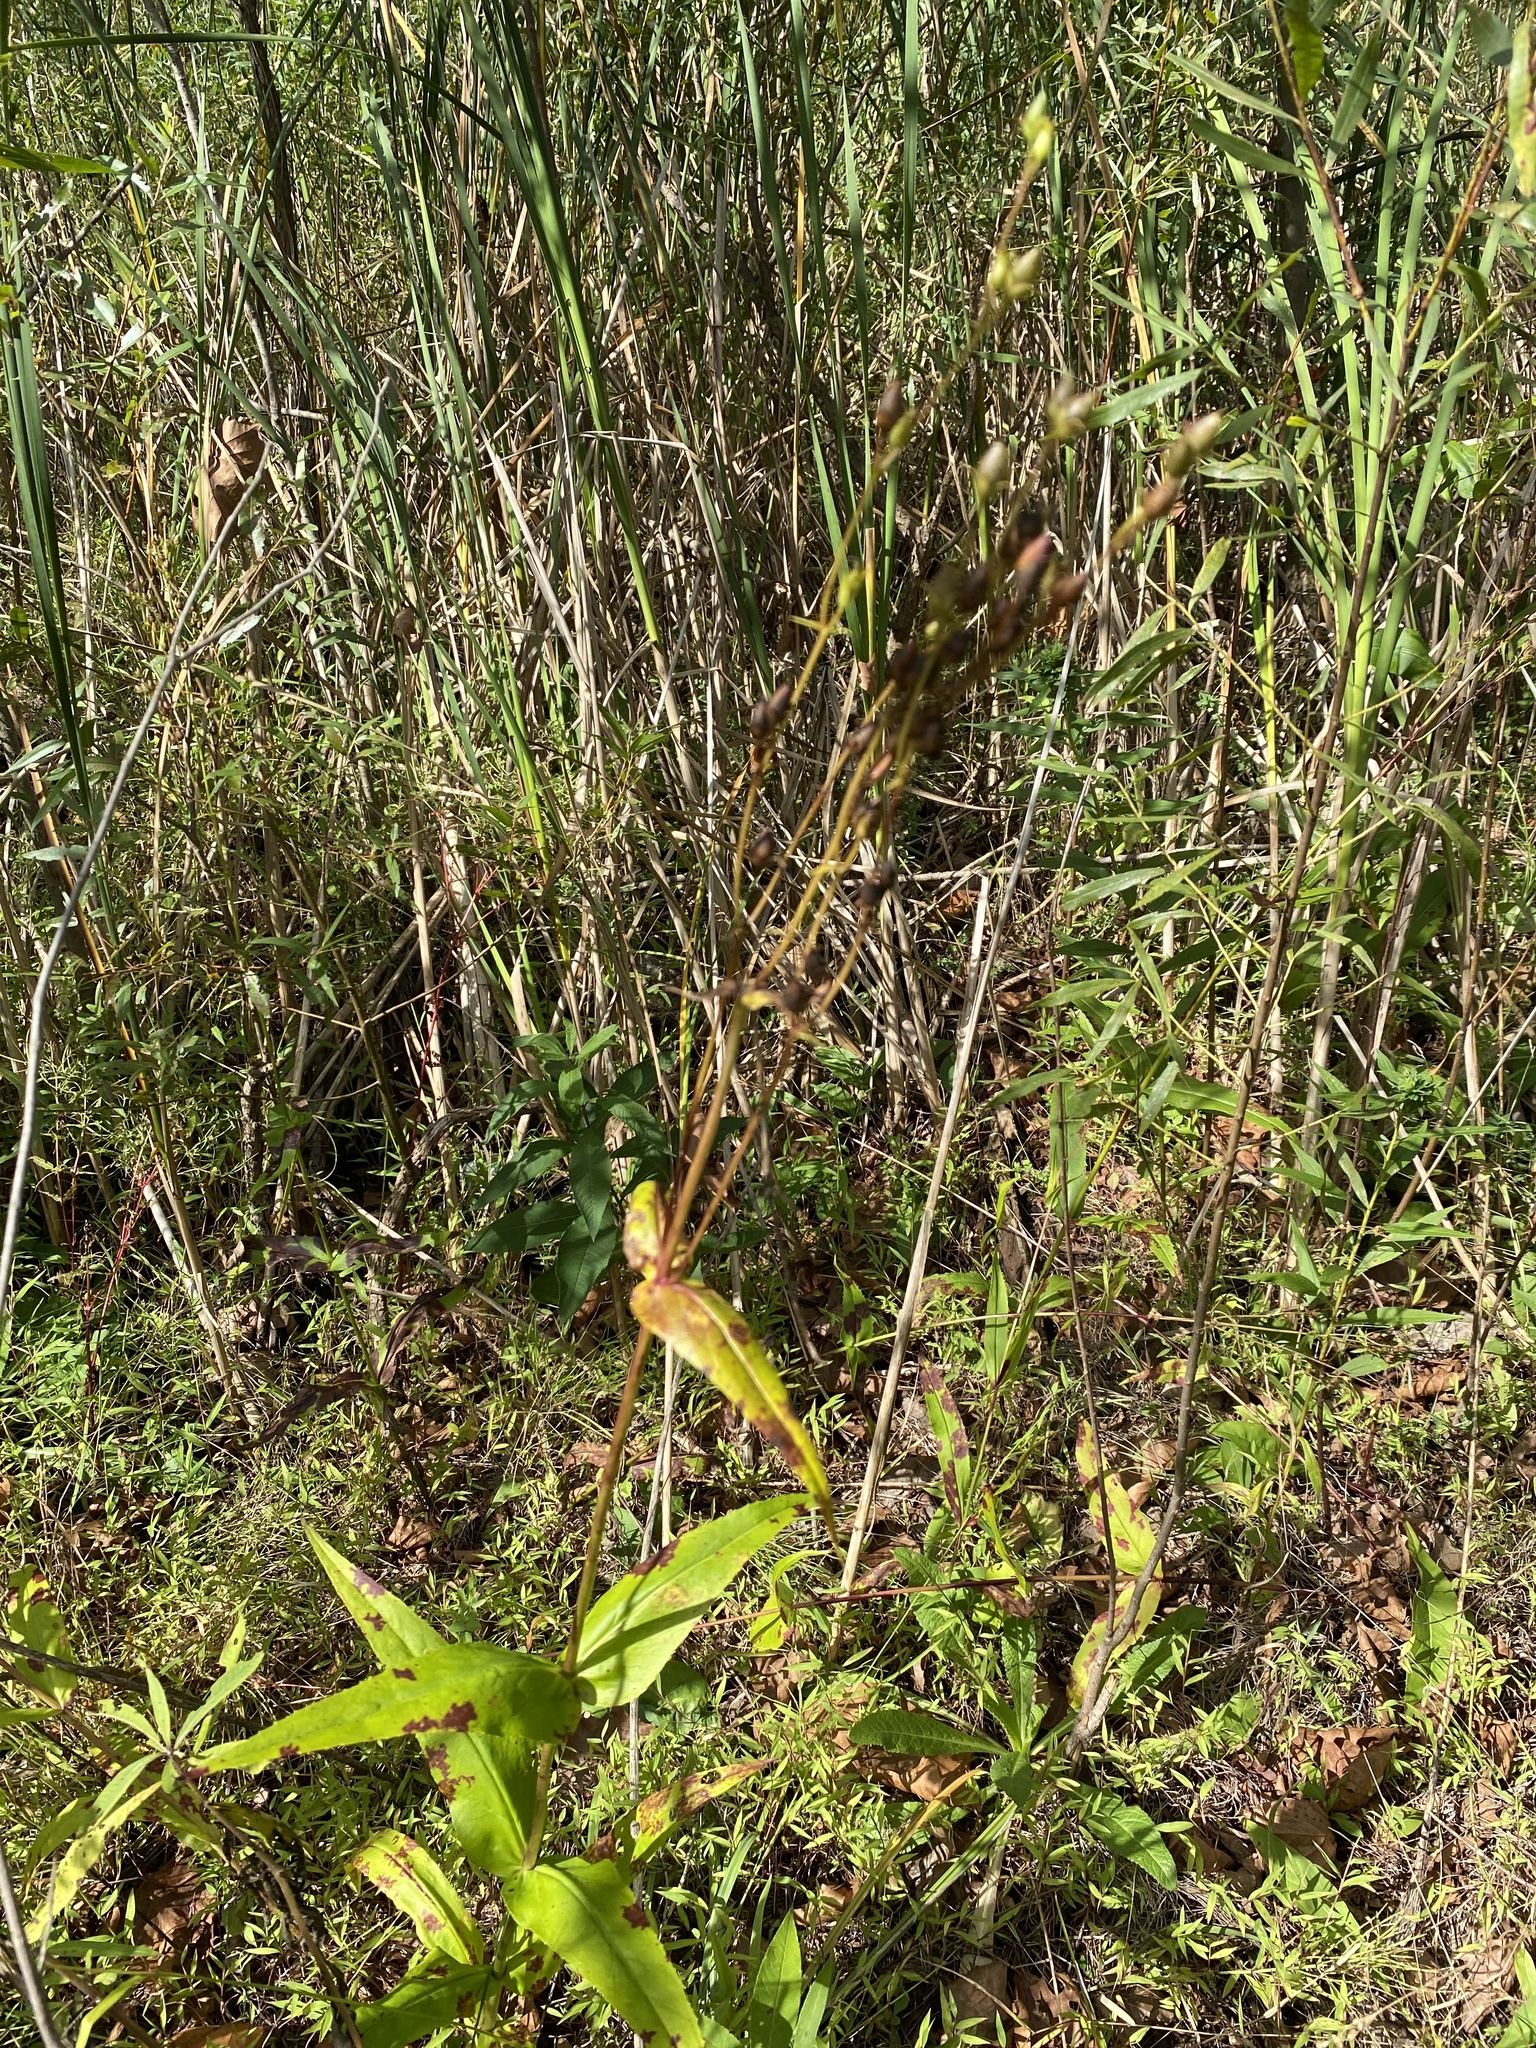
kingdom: Plantae
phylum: Tracheophyta
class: Magnoliopsida
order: Lamiales
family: Plantaginaceae
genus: Penstemon
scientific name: Penstemon digitalis
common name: Foxglove beardtongue
